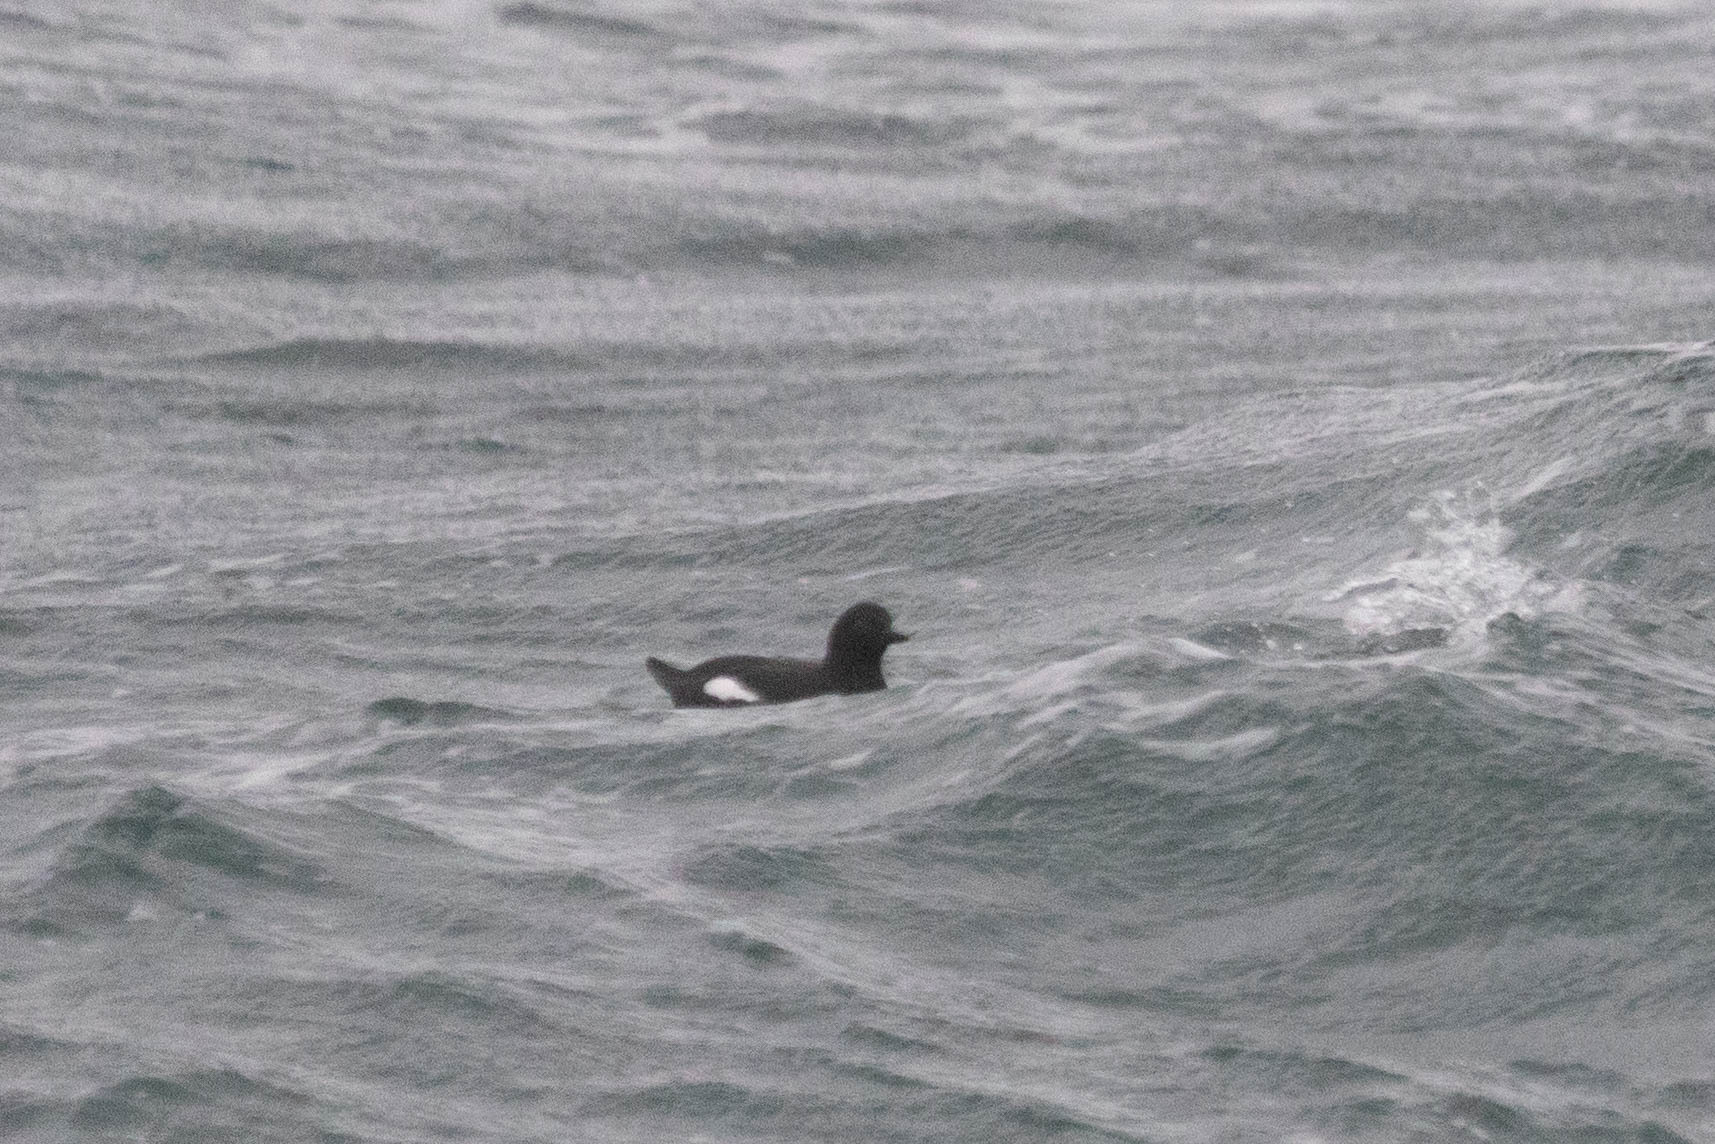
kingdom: Animalia
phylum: Chordata
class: Aves
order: Charadriiformes
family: Alcidae
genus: Cepphus
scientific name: Cepphus columba
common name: Pigeon guillemot
